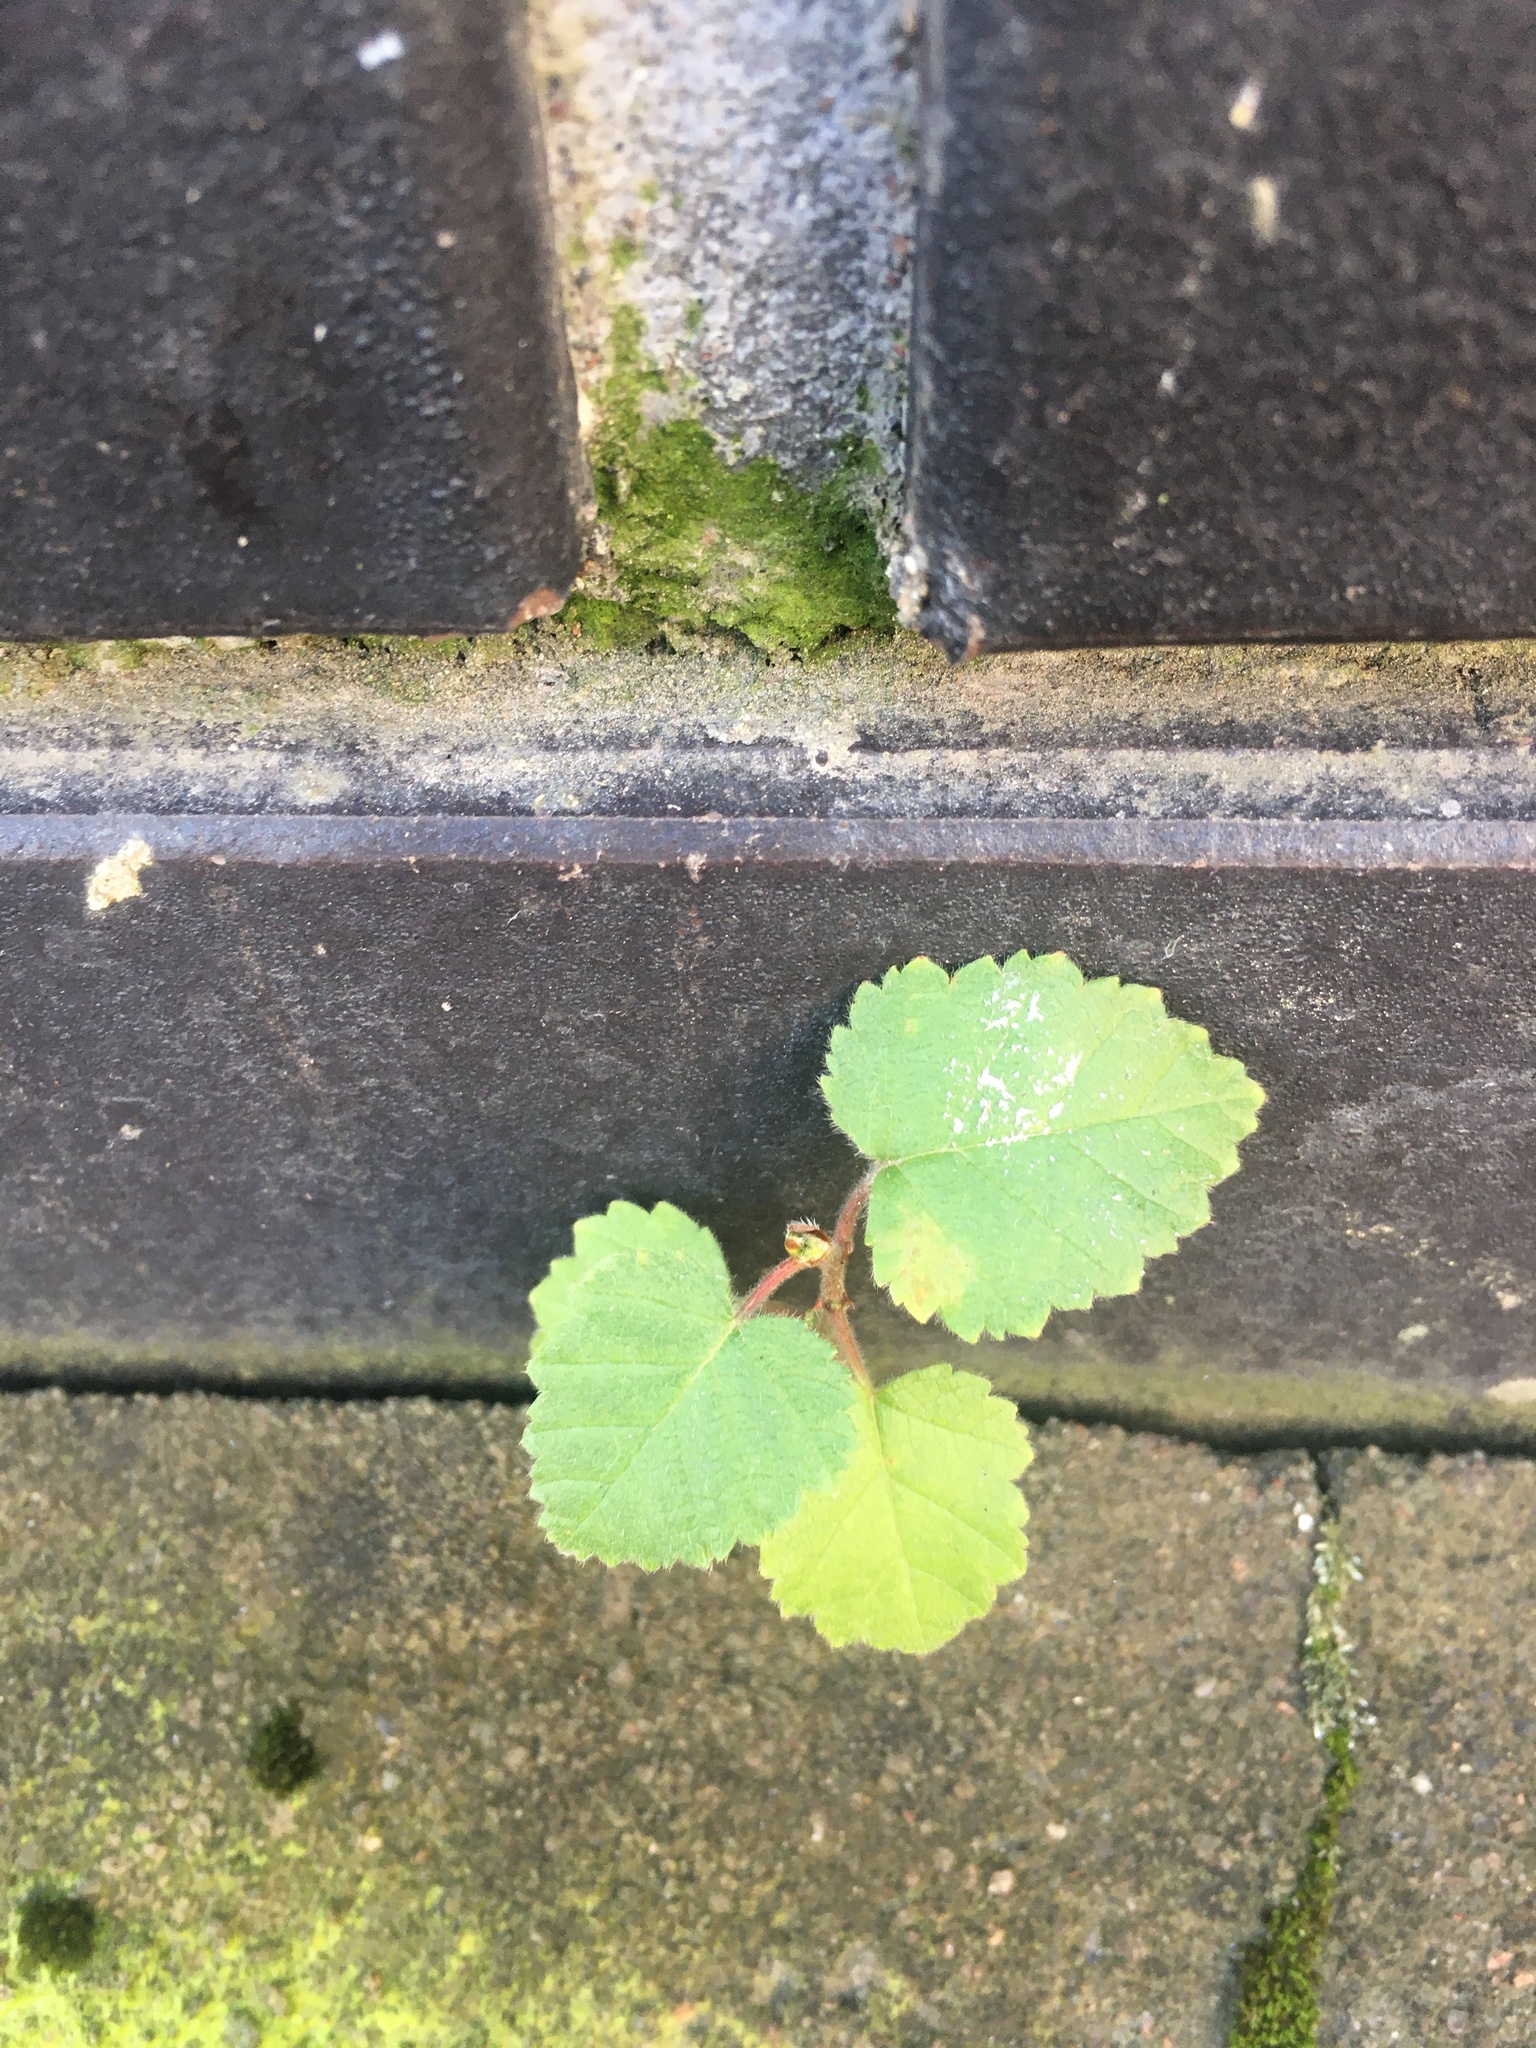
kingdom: Plantae
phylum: Tracheophyta
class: Magnoliopsida
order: Fagales
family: Betulaceae
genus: Betula
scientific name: Betula pubescens
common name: Downy birch
